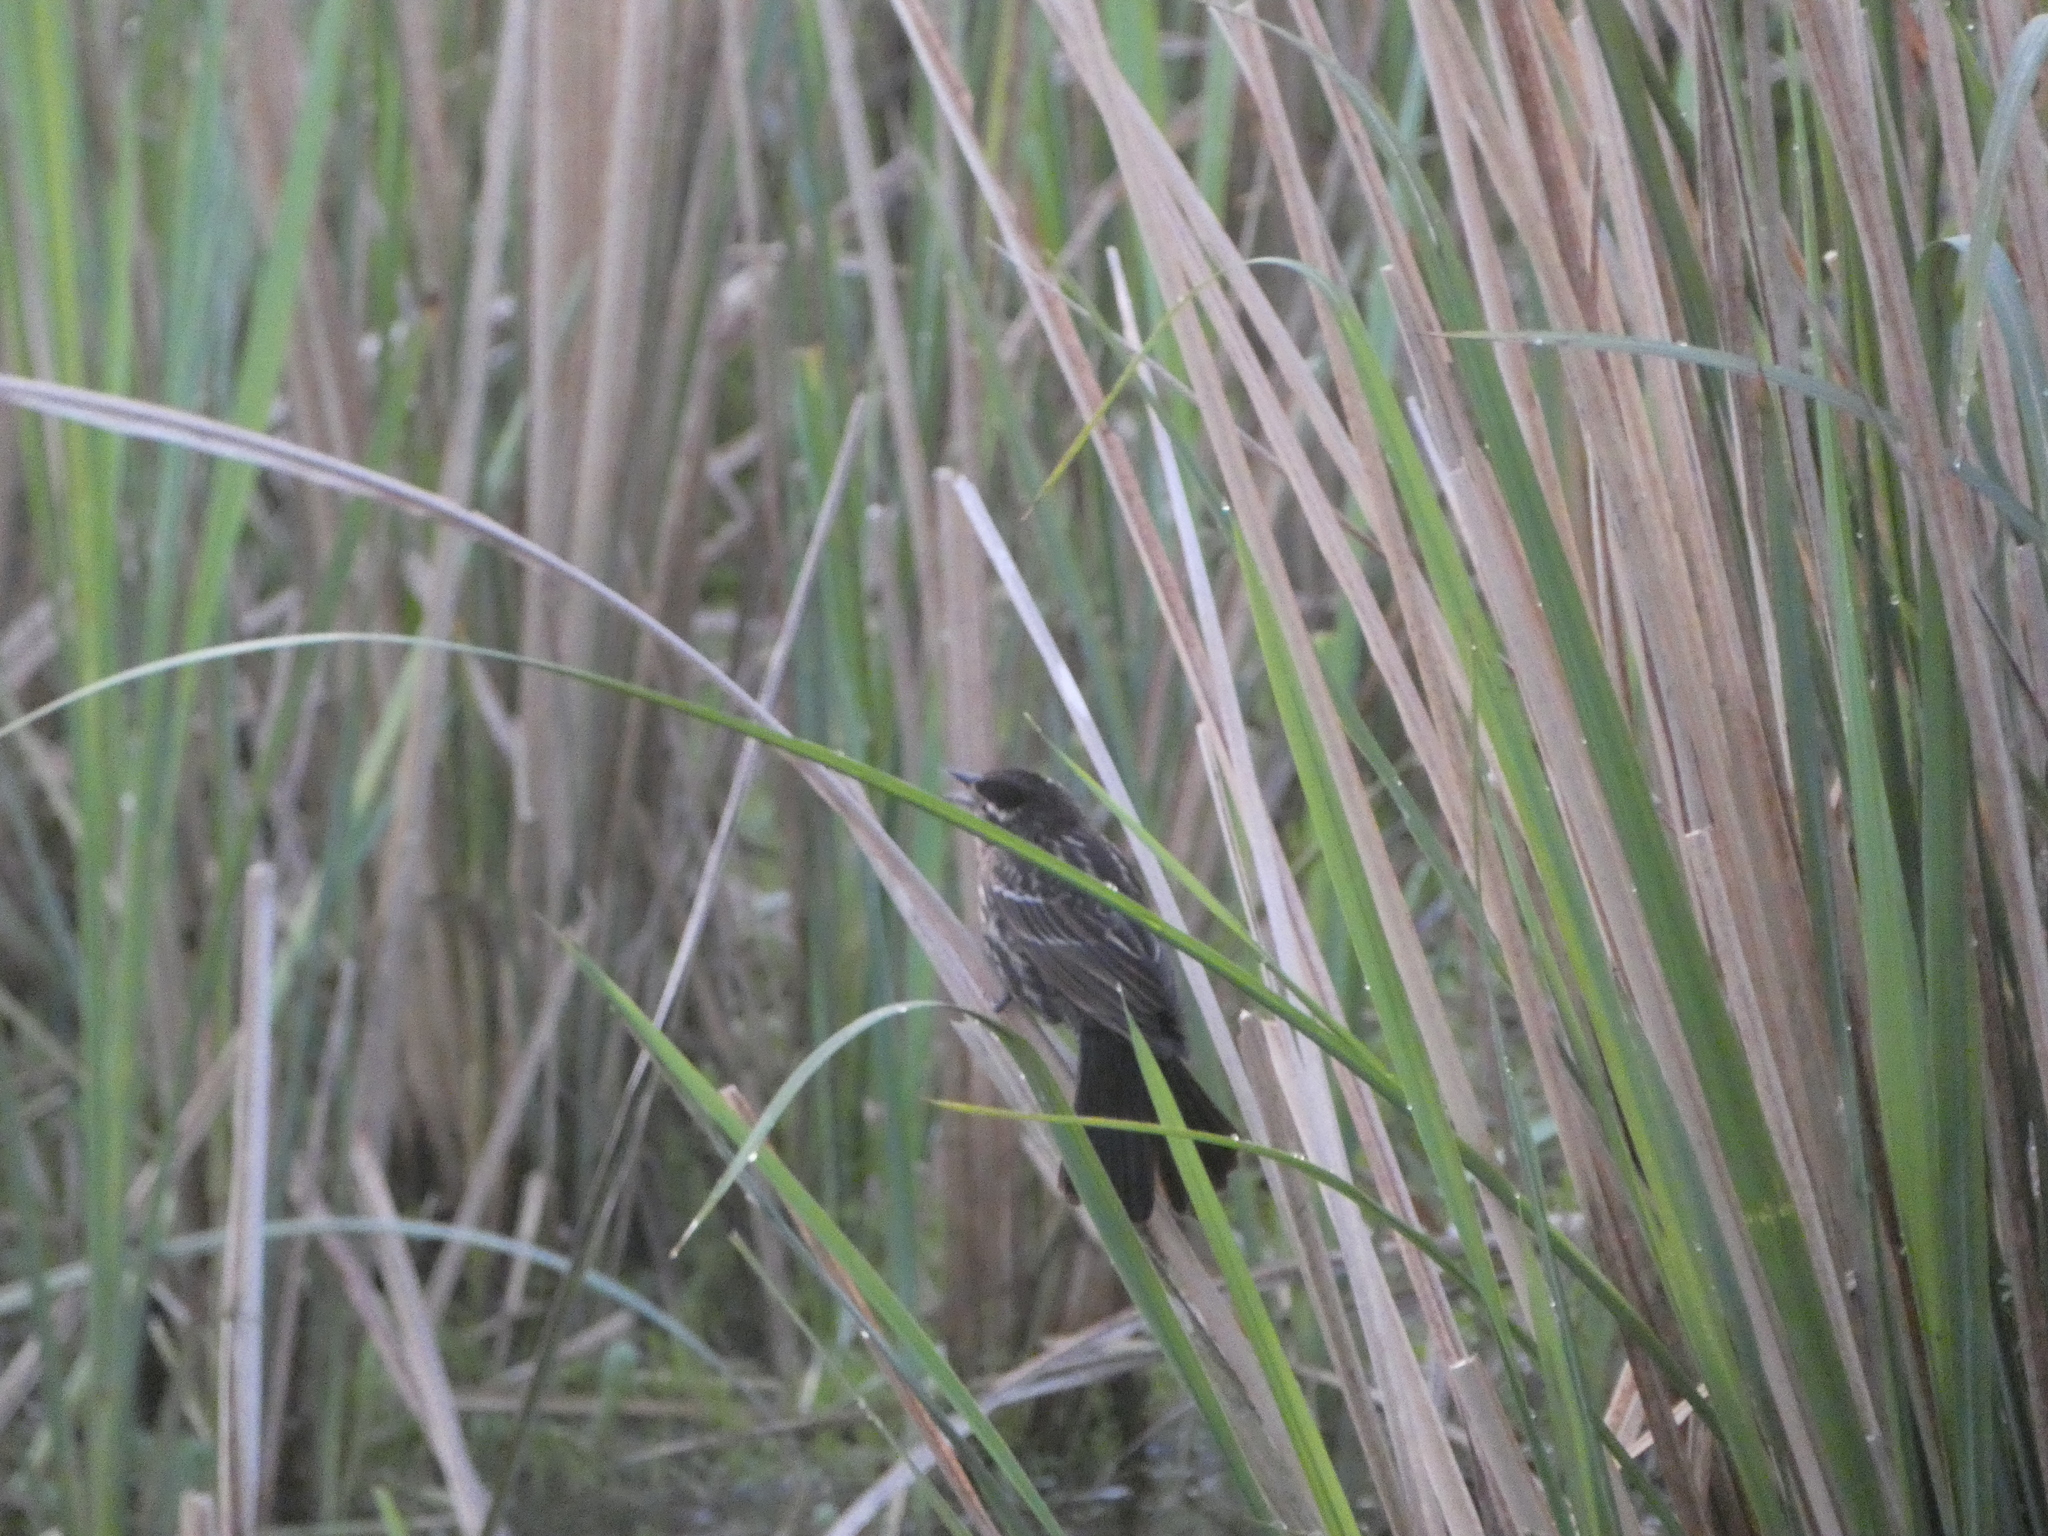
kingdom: Animalia
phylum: Chordata
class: Aves
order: Passeriformes
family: Icteridae
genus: Agelaius
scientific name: Agelaius phoeniceus
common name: Red-winged blackbird
